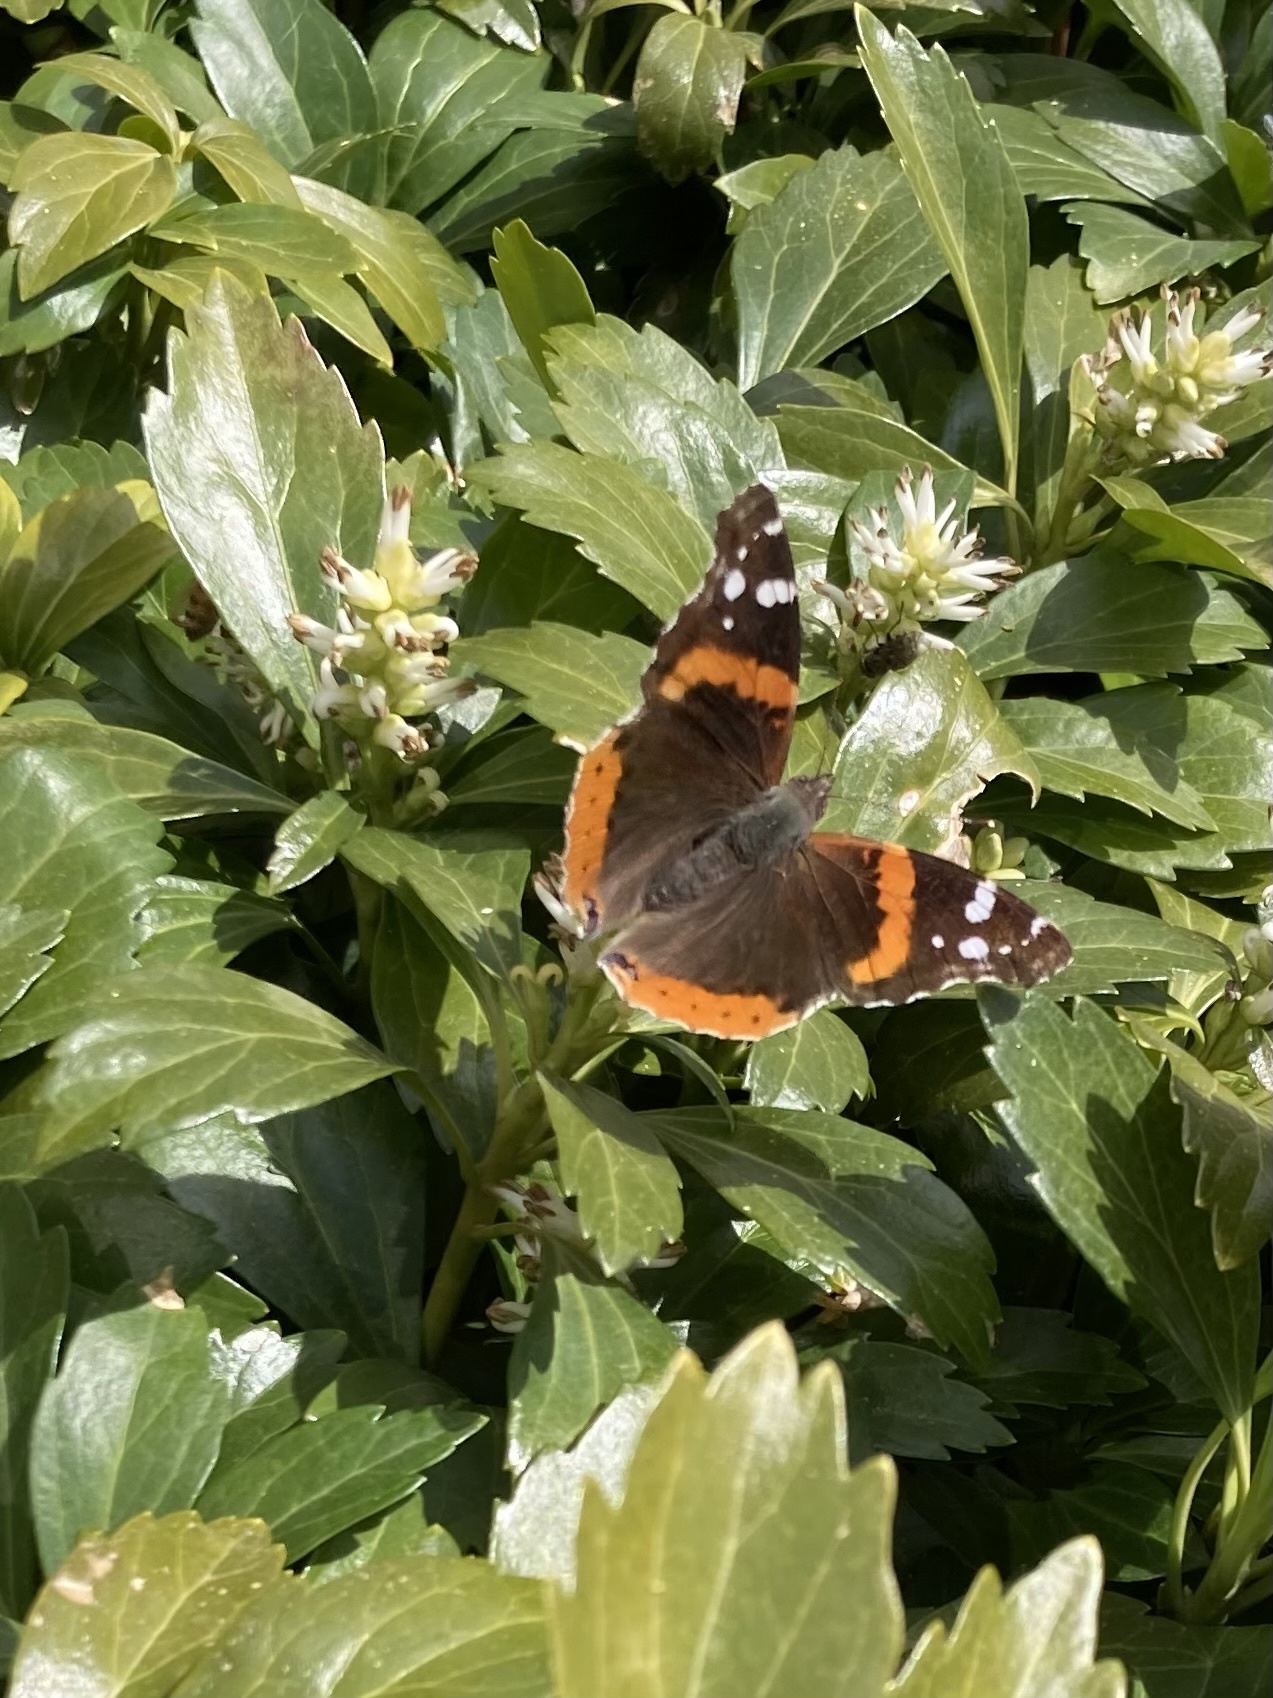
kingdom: Animalia
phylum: Arthropoda
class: Insecta
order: Lepidoptera
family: Nymphalidae
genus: Vanessa
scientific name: Vanessa atalanta
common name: Red admiral
